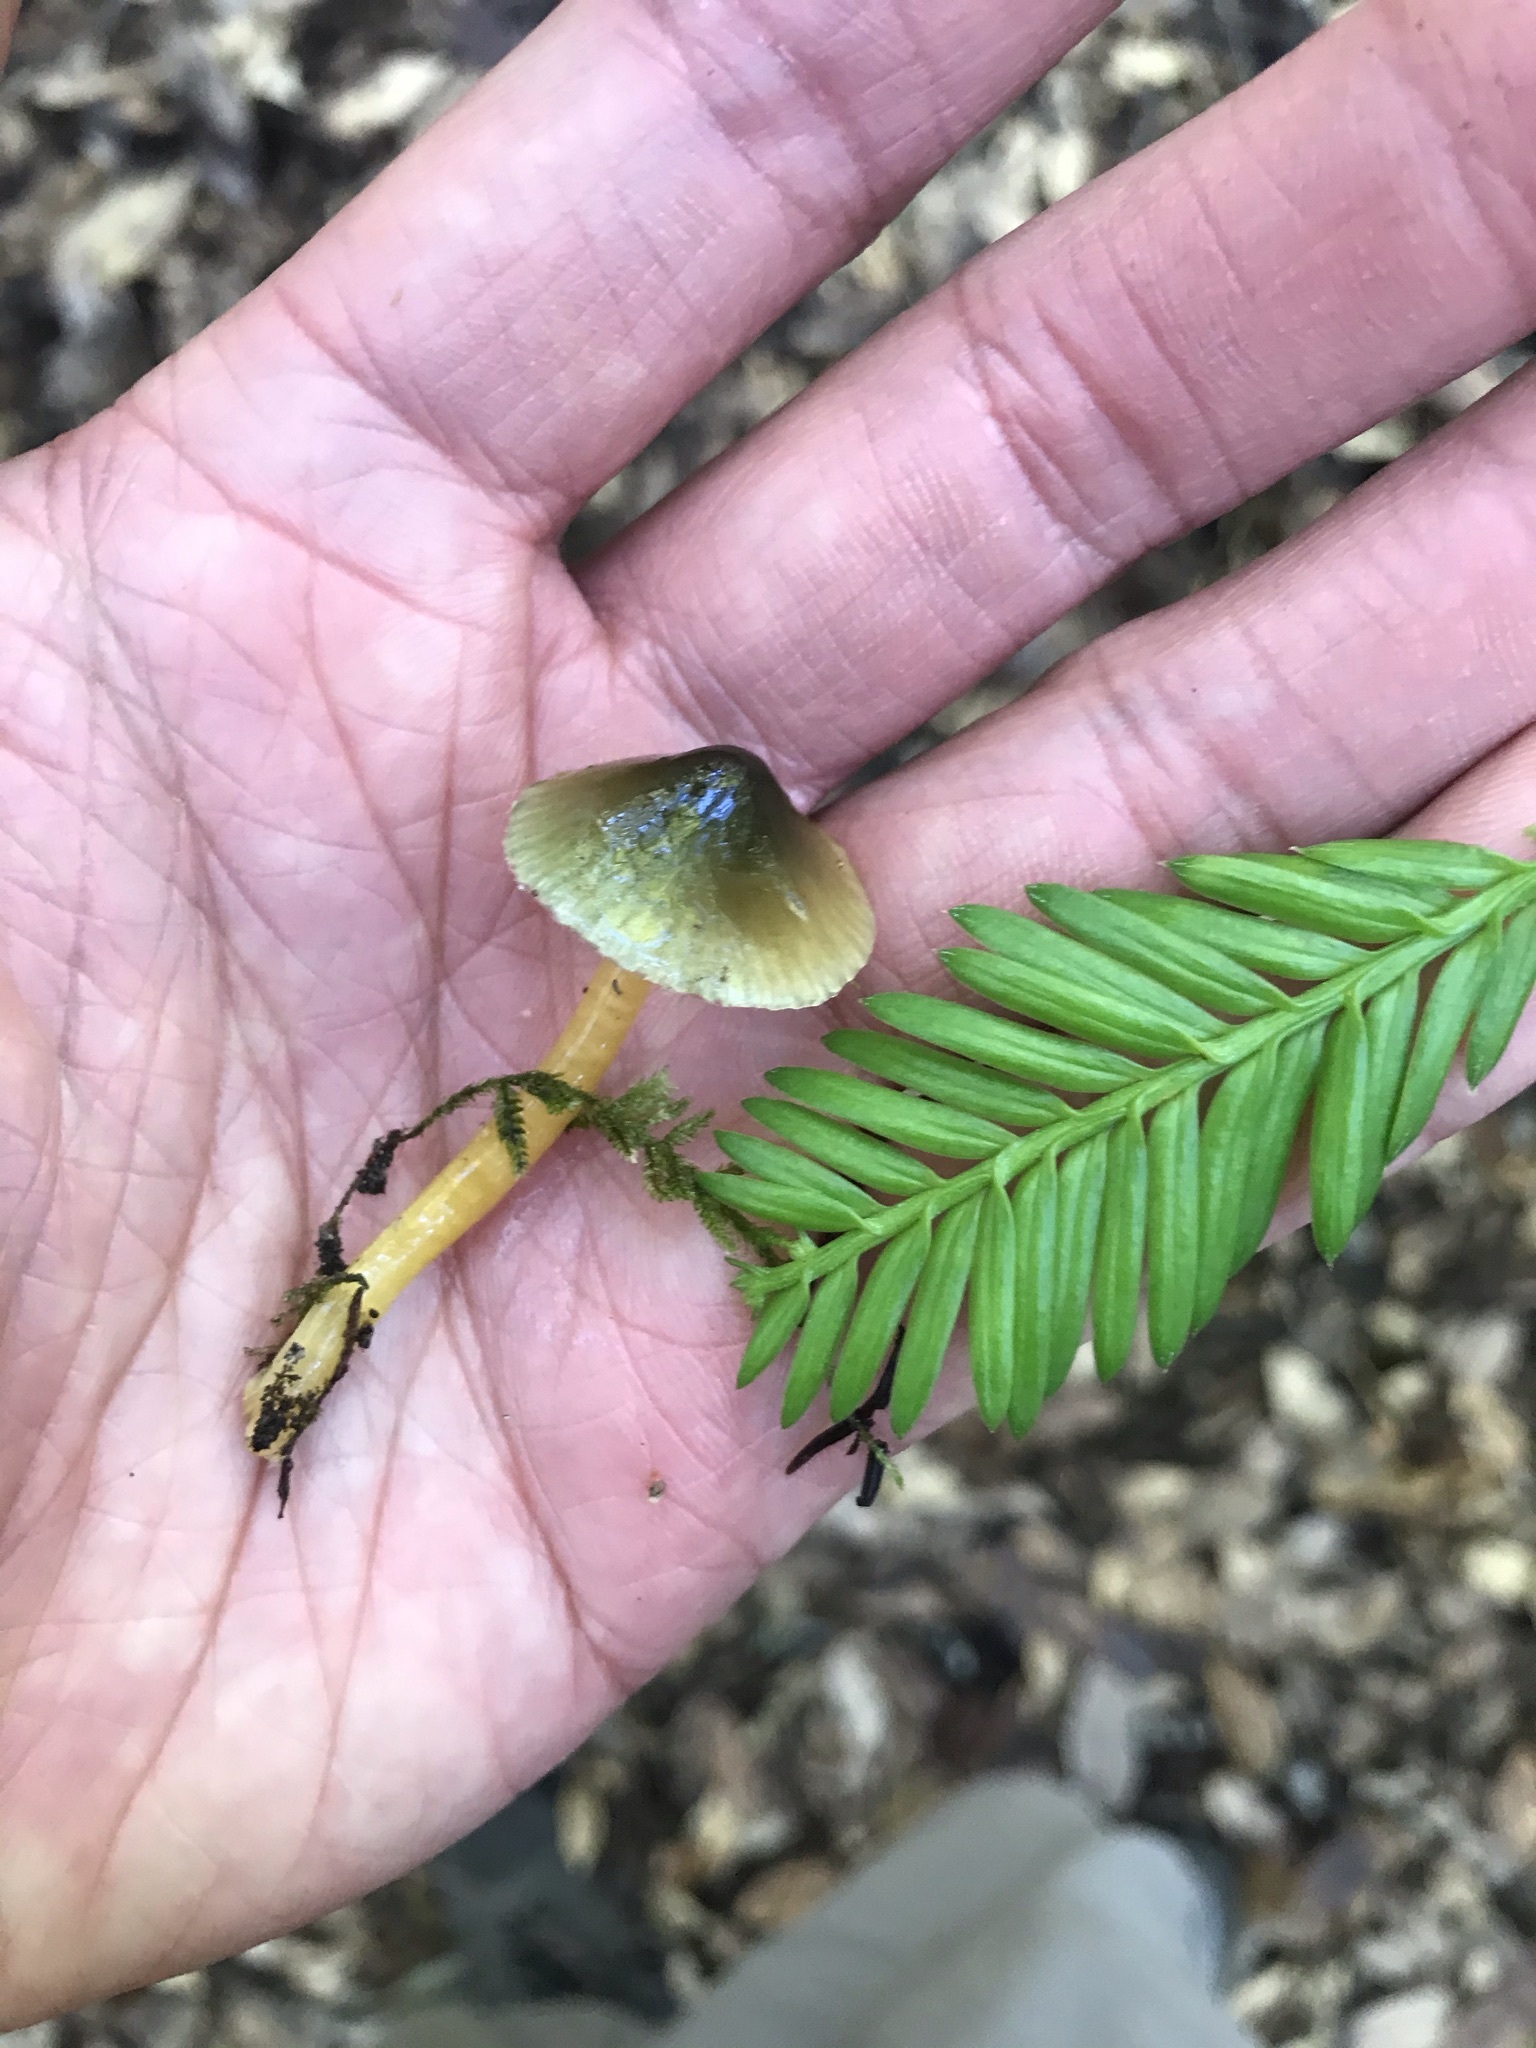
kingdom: Fungi
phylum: Basidiomycota
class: Agaricomycetes
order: Agaricales
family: Hygrophoraceae
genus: Gliophorus
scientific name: Gliophorus psittacinus
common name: Parrot wax-cap
